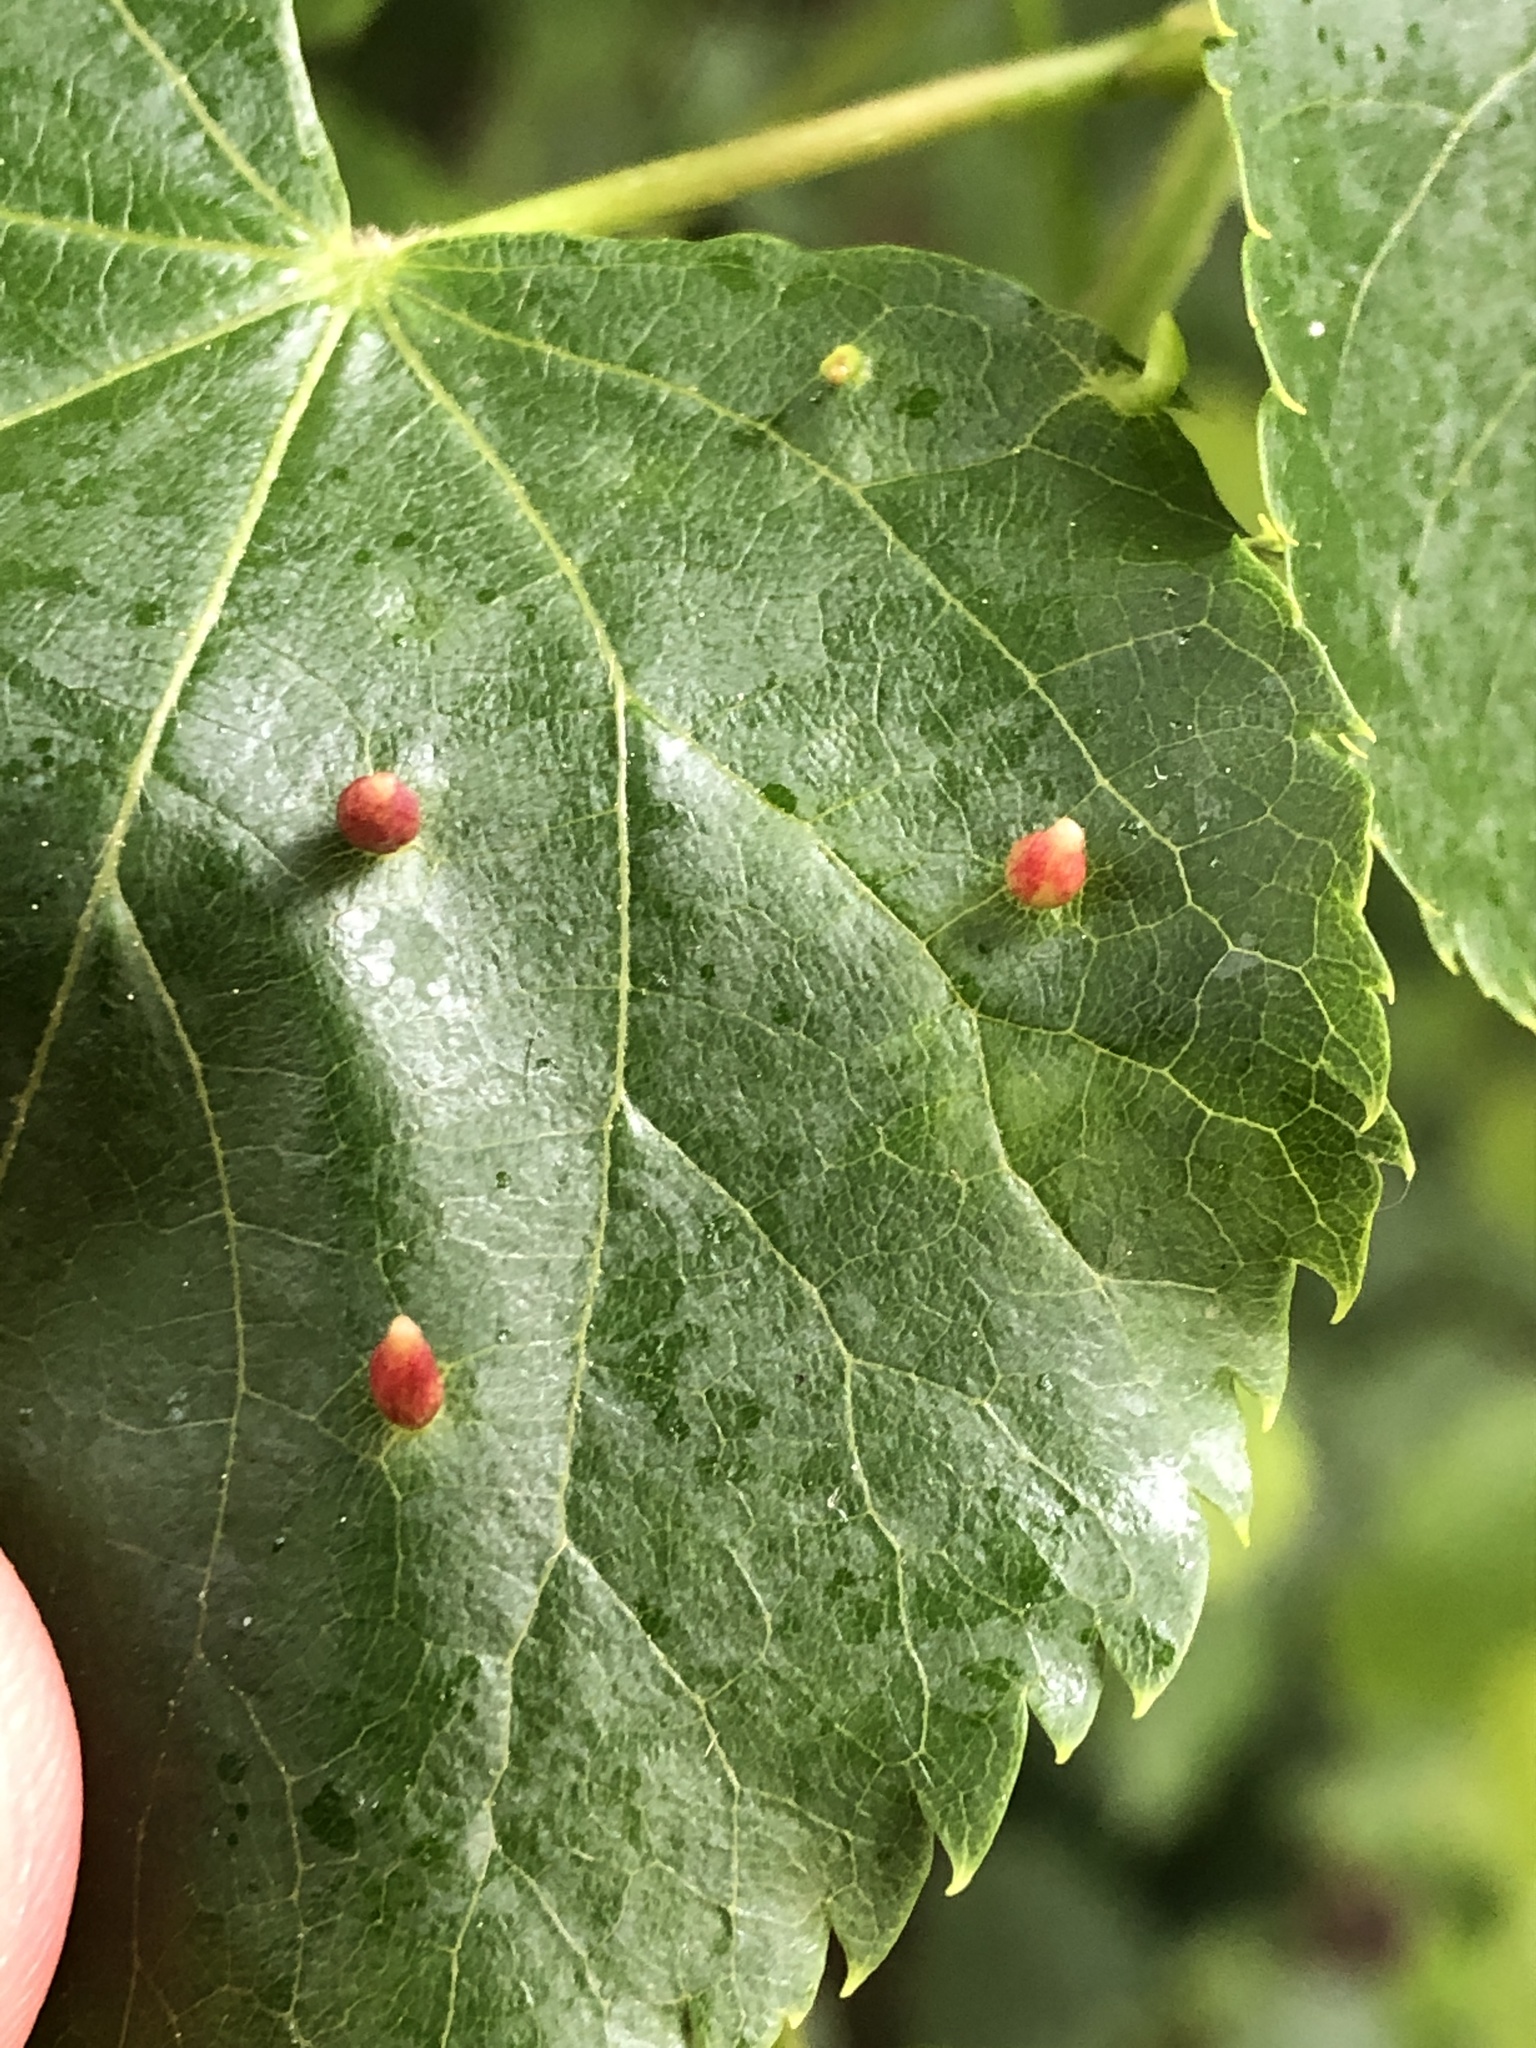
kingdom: Animalia
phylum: Arthropoda
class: Arachnida
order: Trombidiformes
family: Eriophyidae
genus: Eriophyes
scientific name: Eriophyes tiliae
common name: Red nail gall mite
